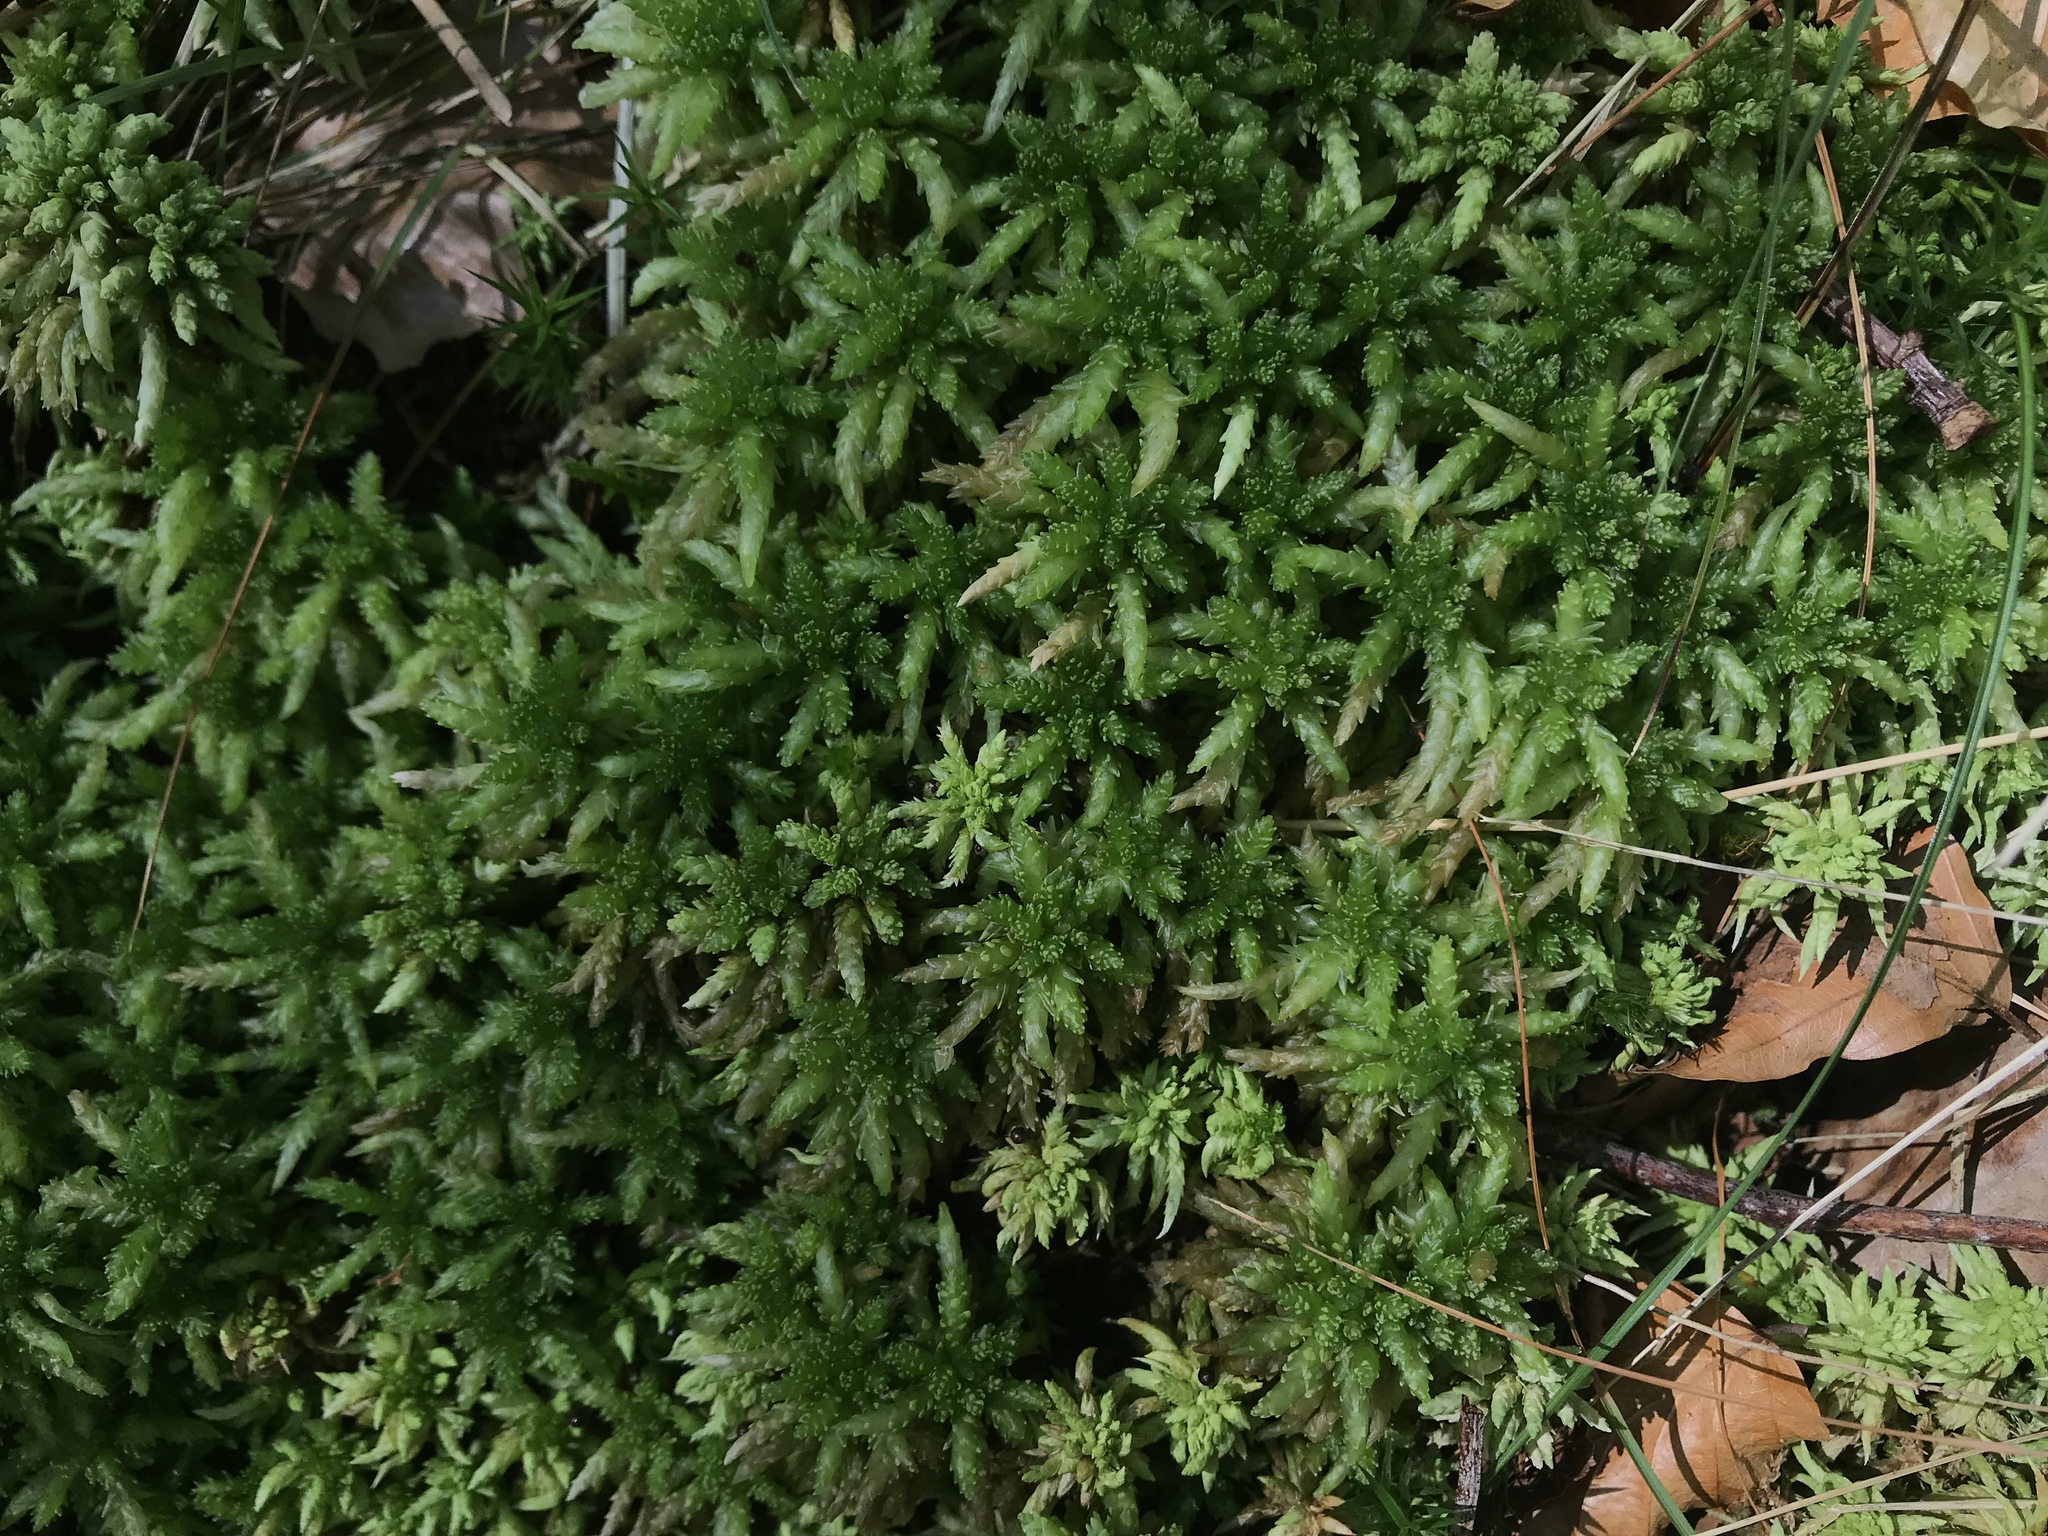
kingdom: Plantae
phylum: Bryophyta
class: Sphagnopsida
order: Sphagnales
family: Sphagnaceae
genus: Sphagnum
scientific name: Sphagnum palustre
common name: Blunt-leaved bog-moss
